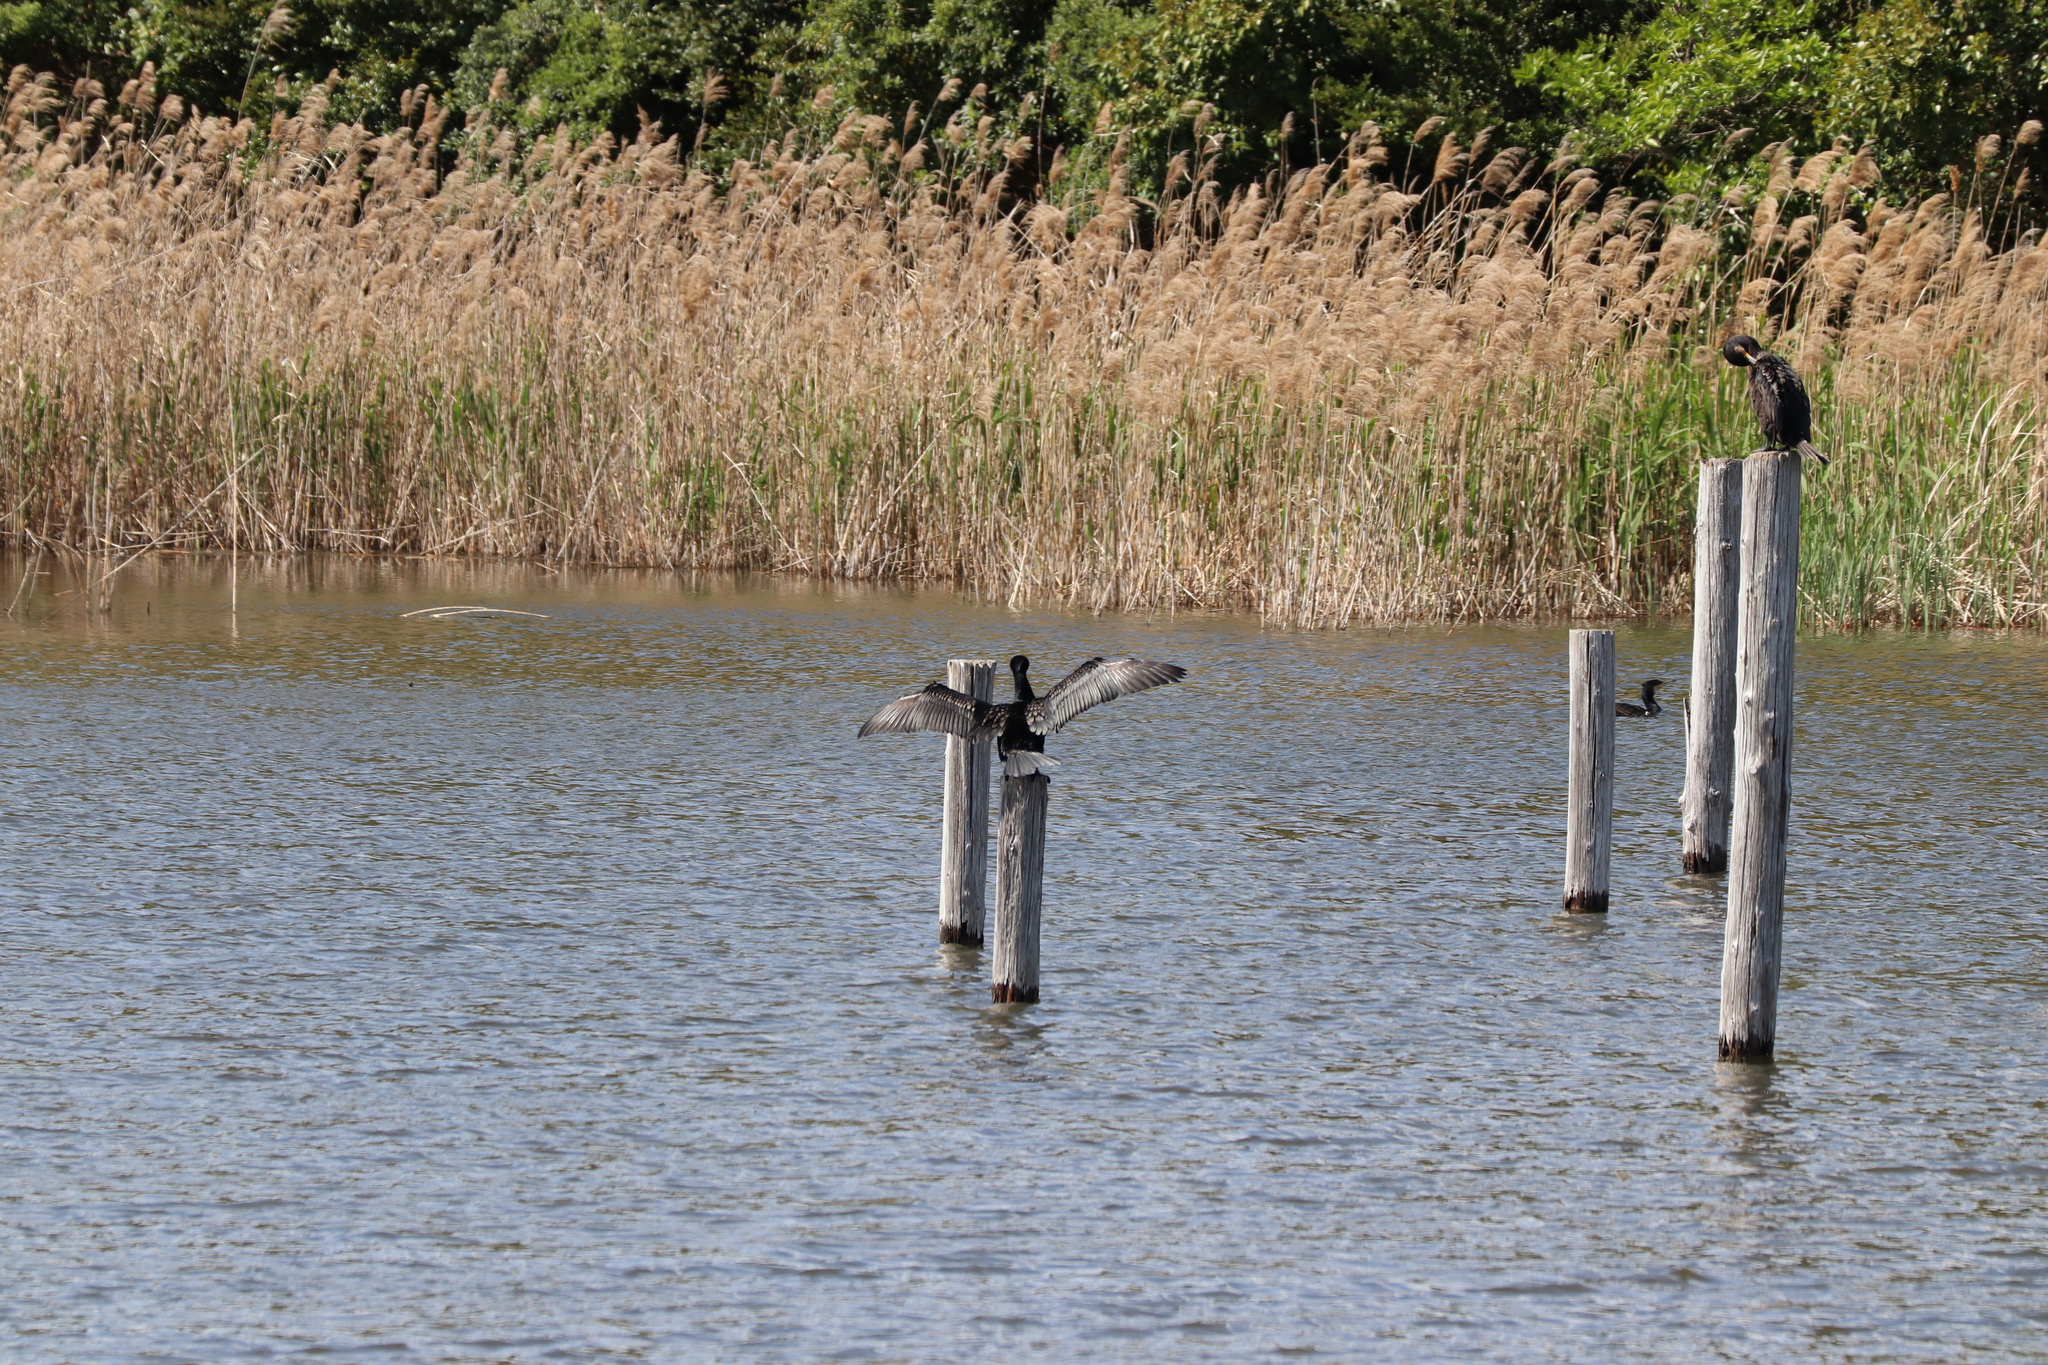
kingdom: Animalia
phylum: Chordata
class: Aves
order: Suliformes
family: Phalacrocoracidae
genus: Phalacrocorax
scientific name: Phalacrocorax carbo
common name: Great cormorant
